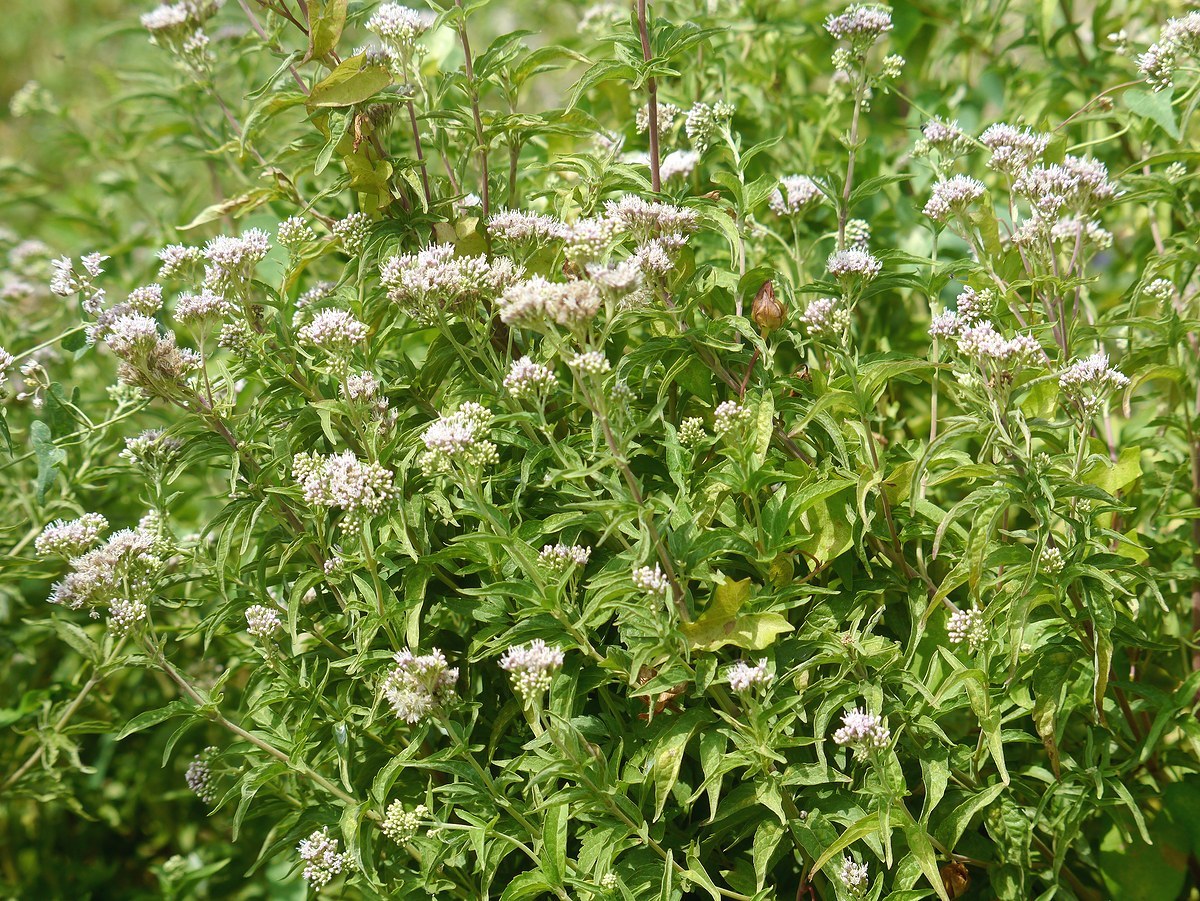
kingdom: Plantae
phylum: Tracheophyta
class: Magnoliopsida
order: Asterales
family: Asteraceae
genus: Eupatorium
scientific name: Eupatorium cannabinum
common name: Hemp-agrimony
